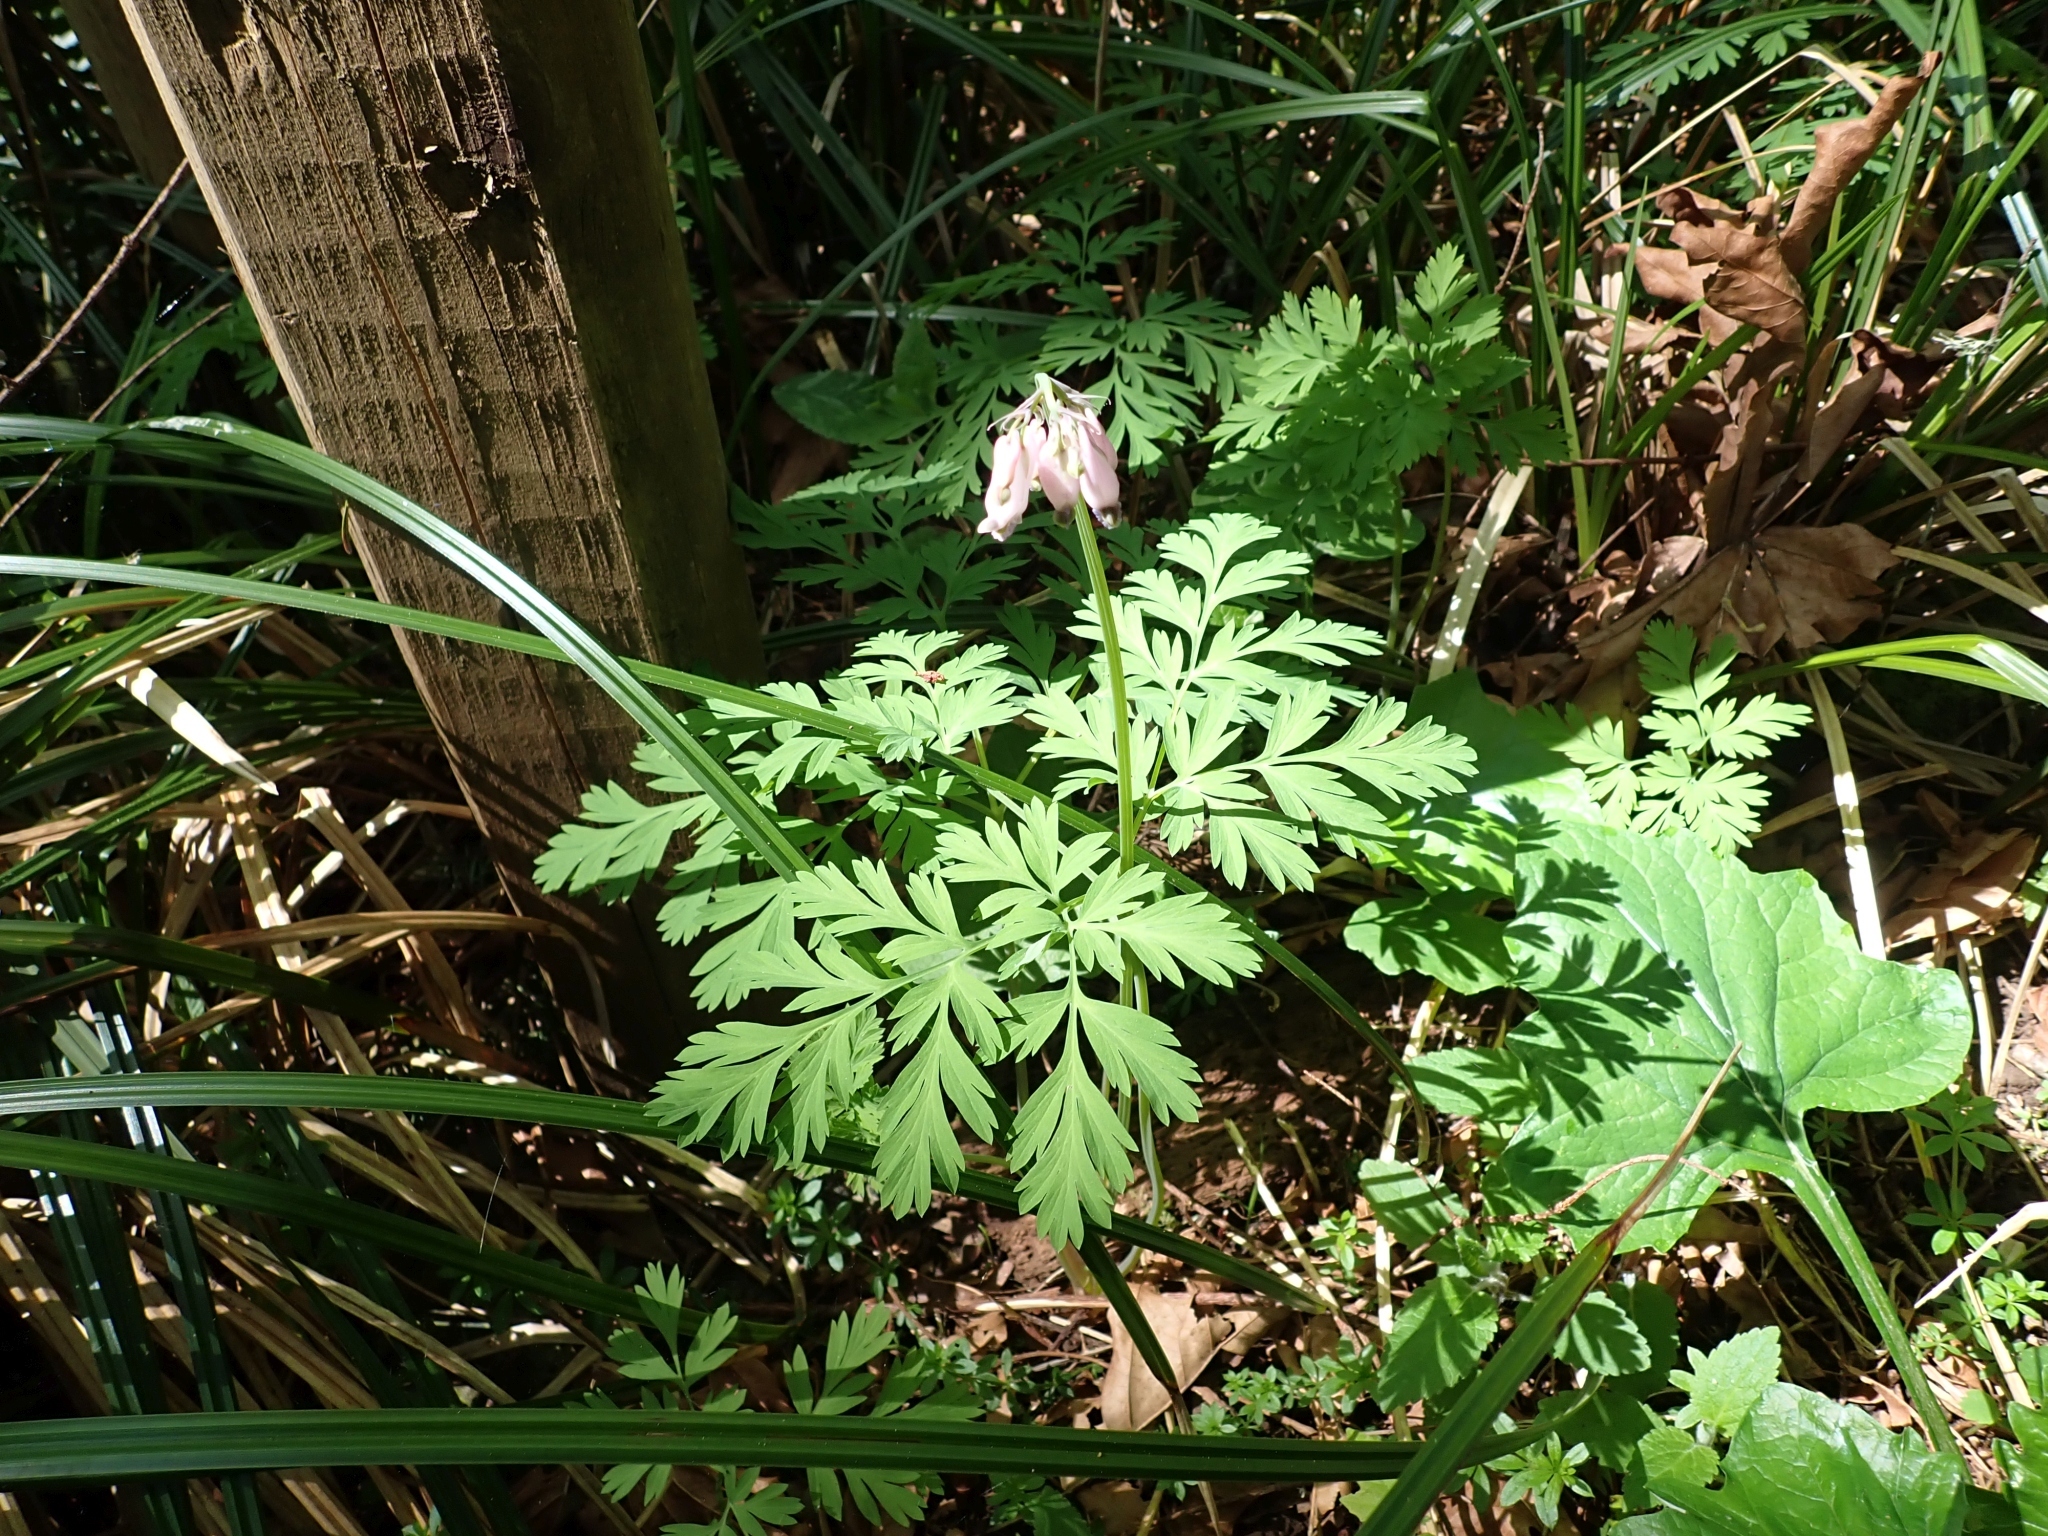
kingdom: Plantae
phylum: Tracheophyta
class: Magnoliopsida
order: Ranunculales
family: Papaveraceae
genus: Dicentra
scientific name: Dicentra formosa
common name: Bleeding-heart
